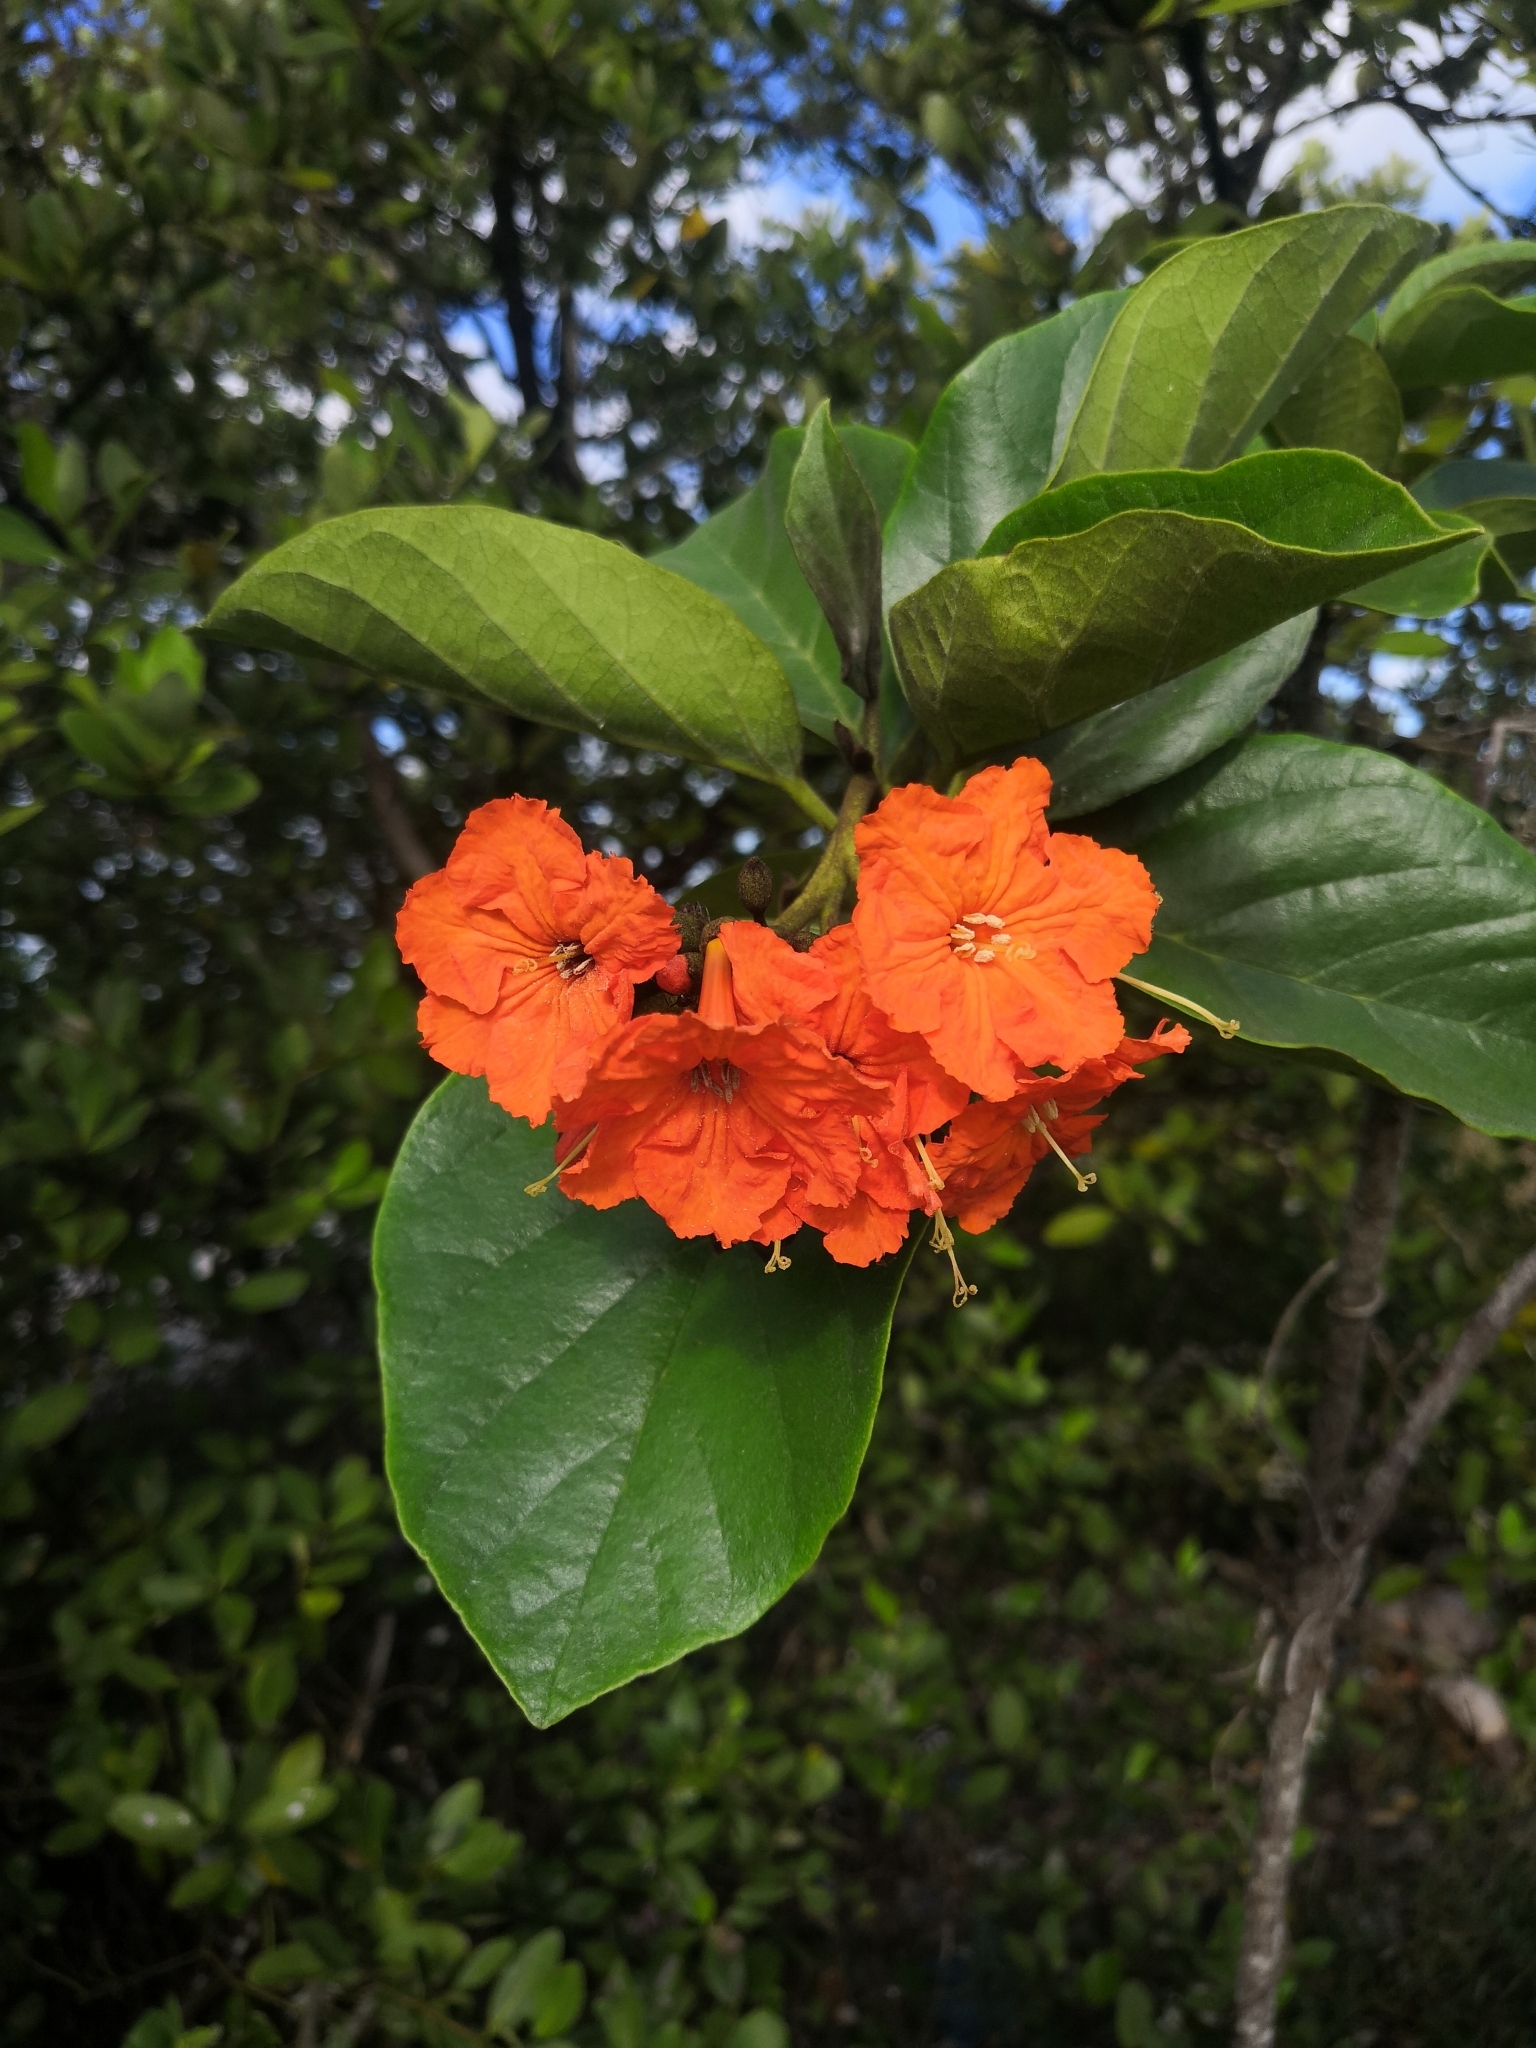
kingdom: Plantae
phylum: Tracheophyta
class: Magnoliopsida
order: Boraginales
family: Cordiaceae
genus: Cordia
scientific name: Cordia sebestena
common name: Largeleaf geigertree
